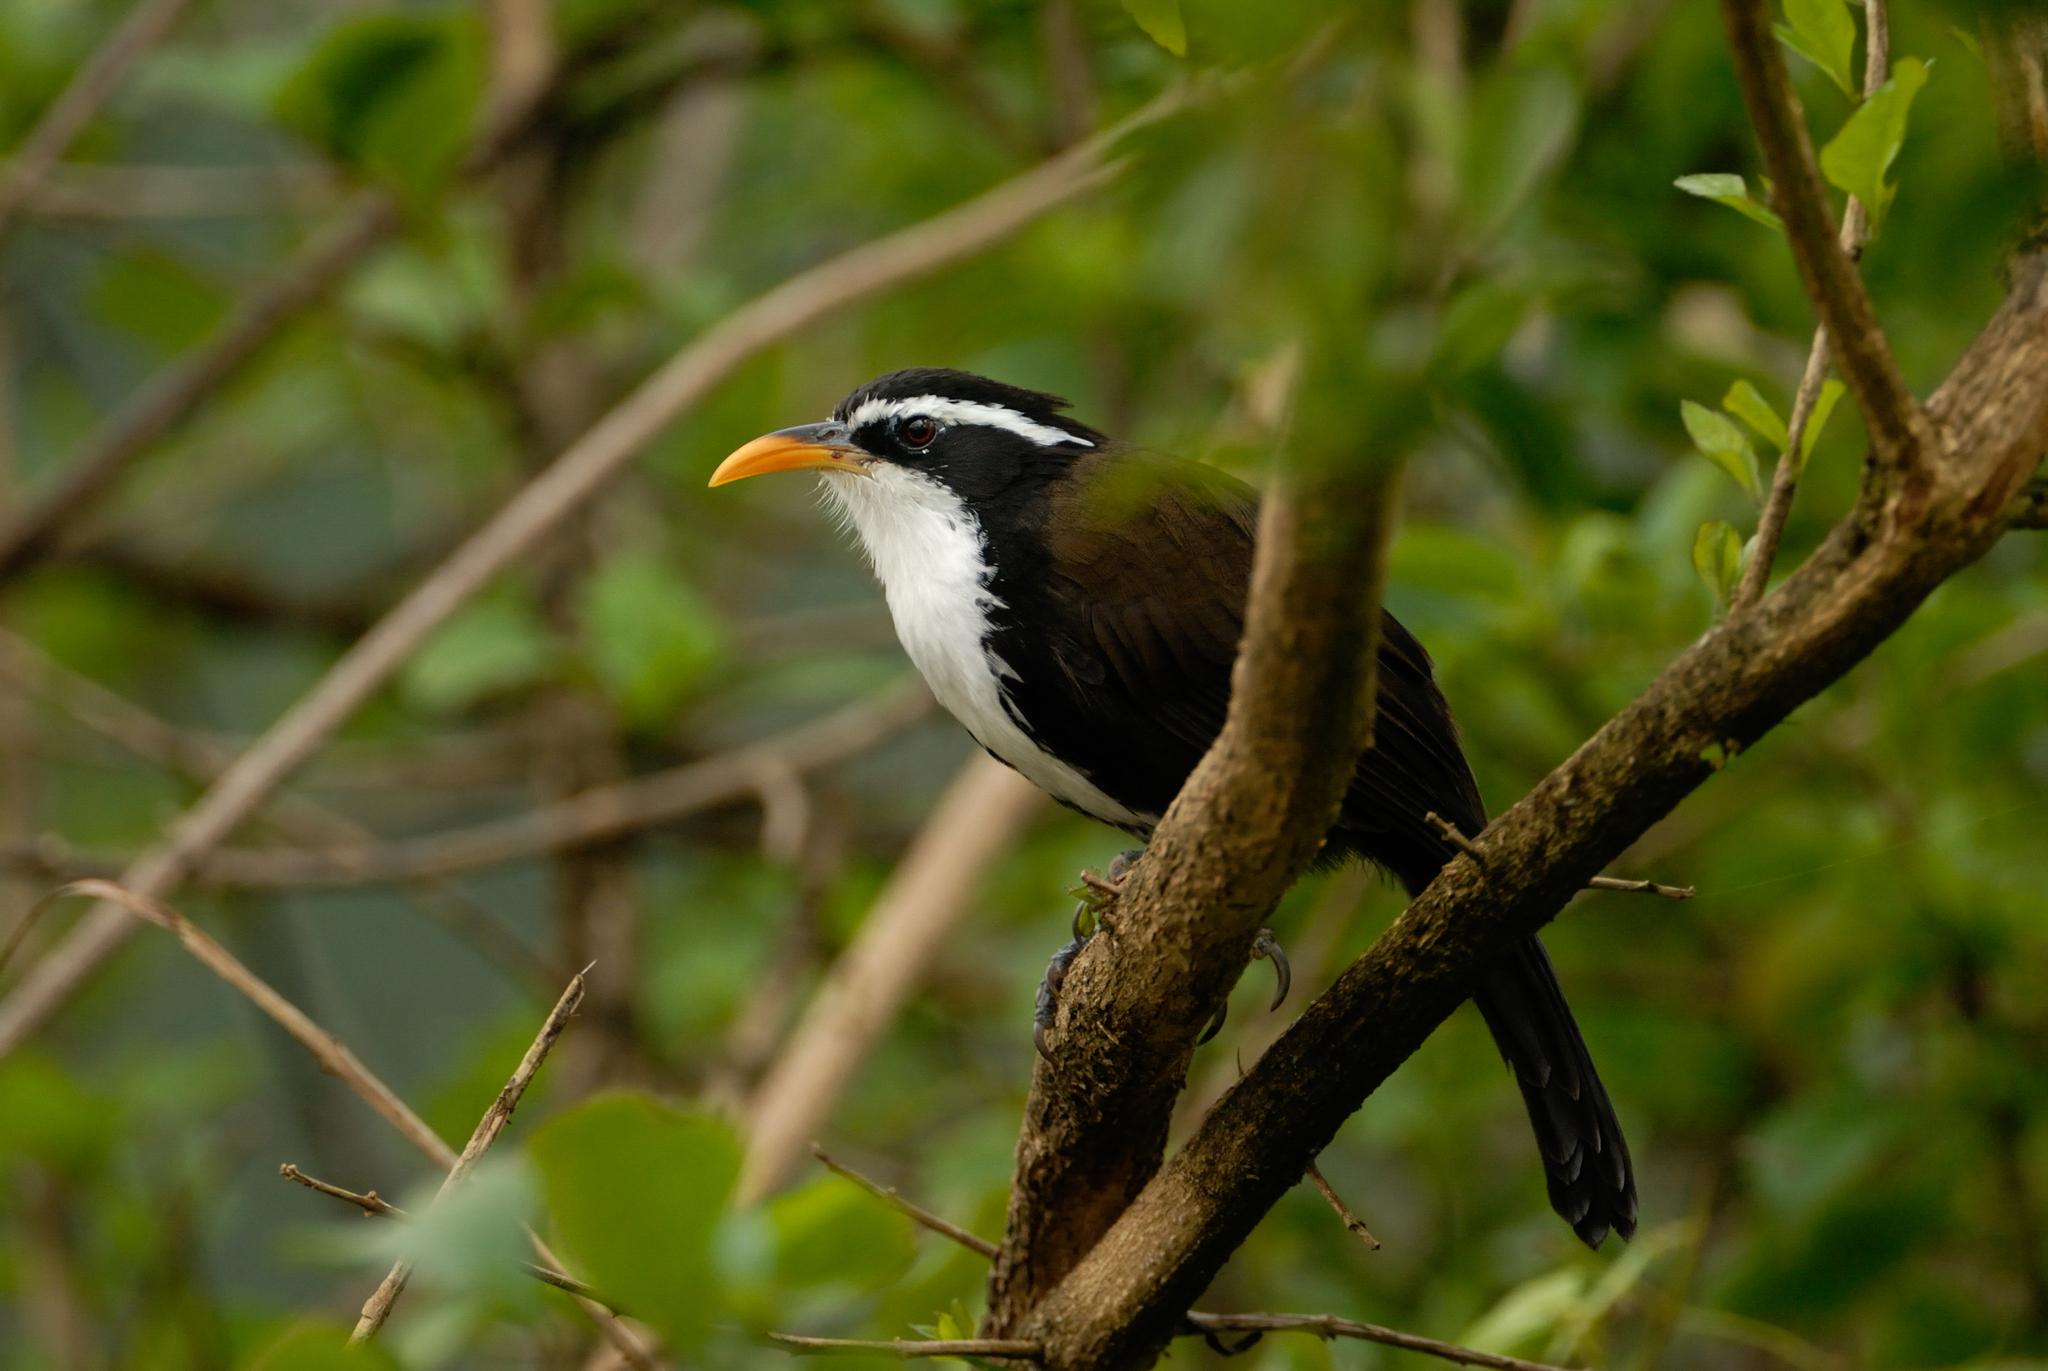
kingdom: Animalia
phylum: Chordata
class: Aves
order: Passeriformes
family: Timaliidae
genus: Pomatorhinus
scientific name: Pomatorhinus horsfieldii
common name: Indian scimitar babbler
